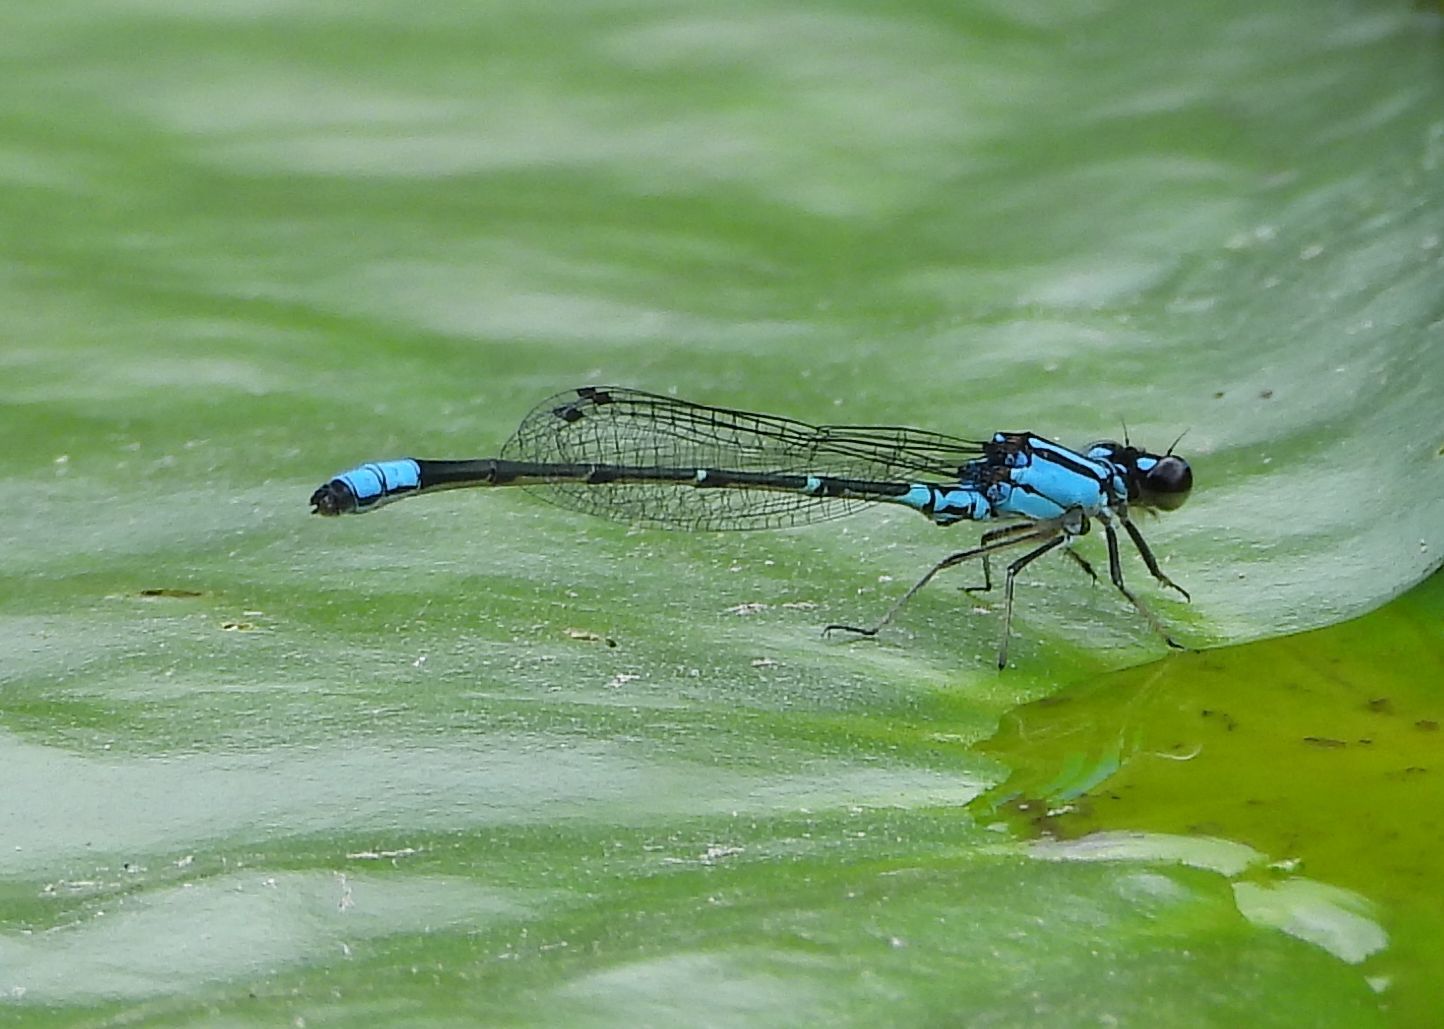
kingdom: Animalia
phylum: Arthropoda
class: Insecta
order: Odonata
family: Coenagrionidae
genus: Enallagma
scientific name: Enallagma geminatum
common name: Skimming bluet
